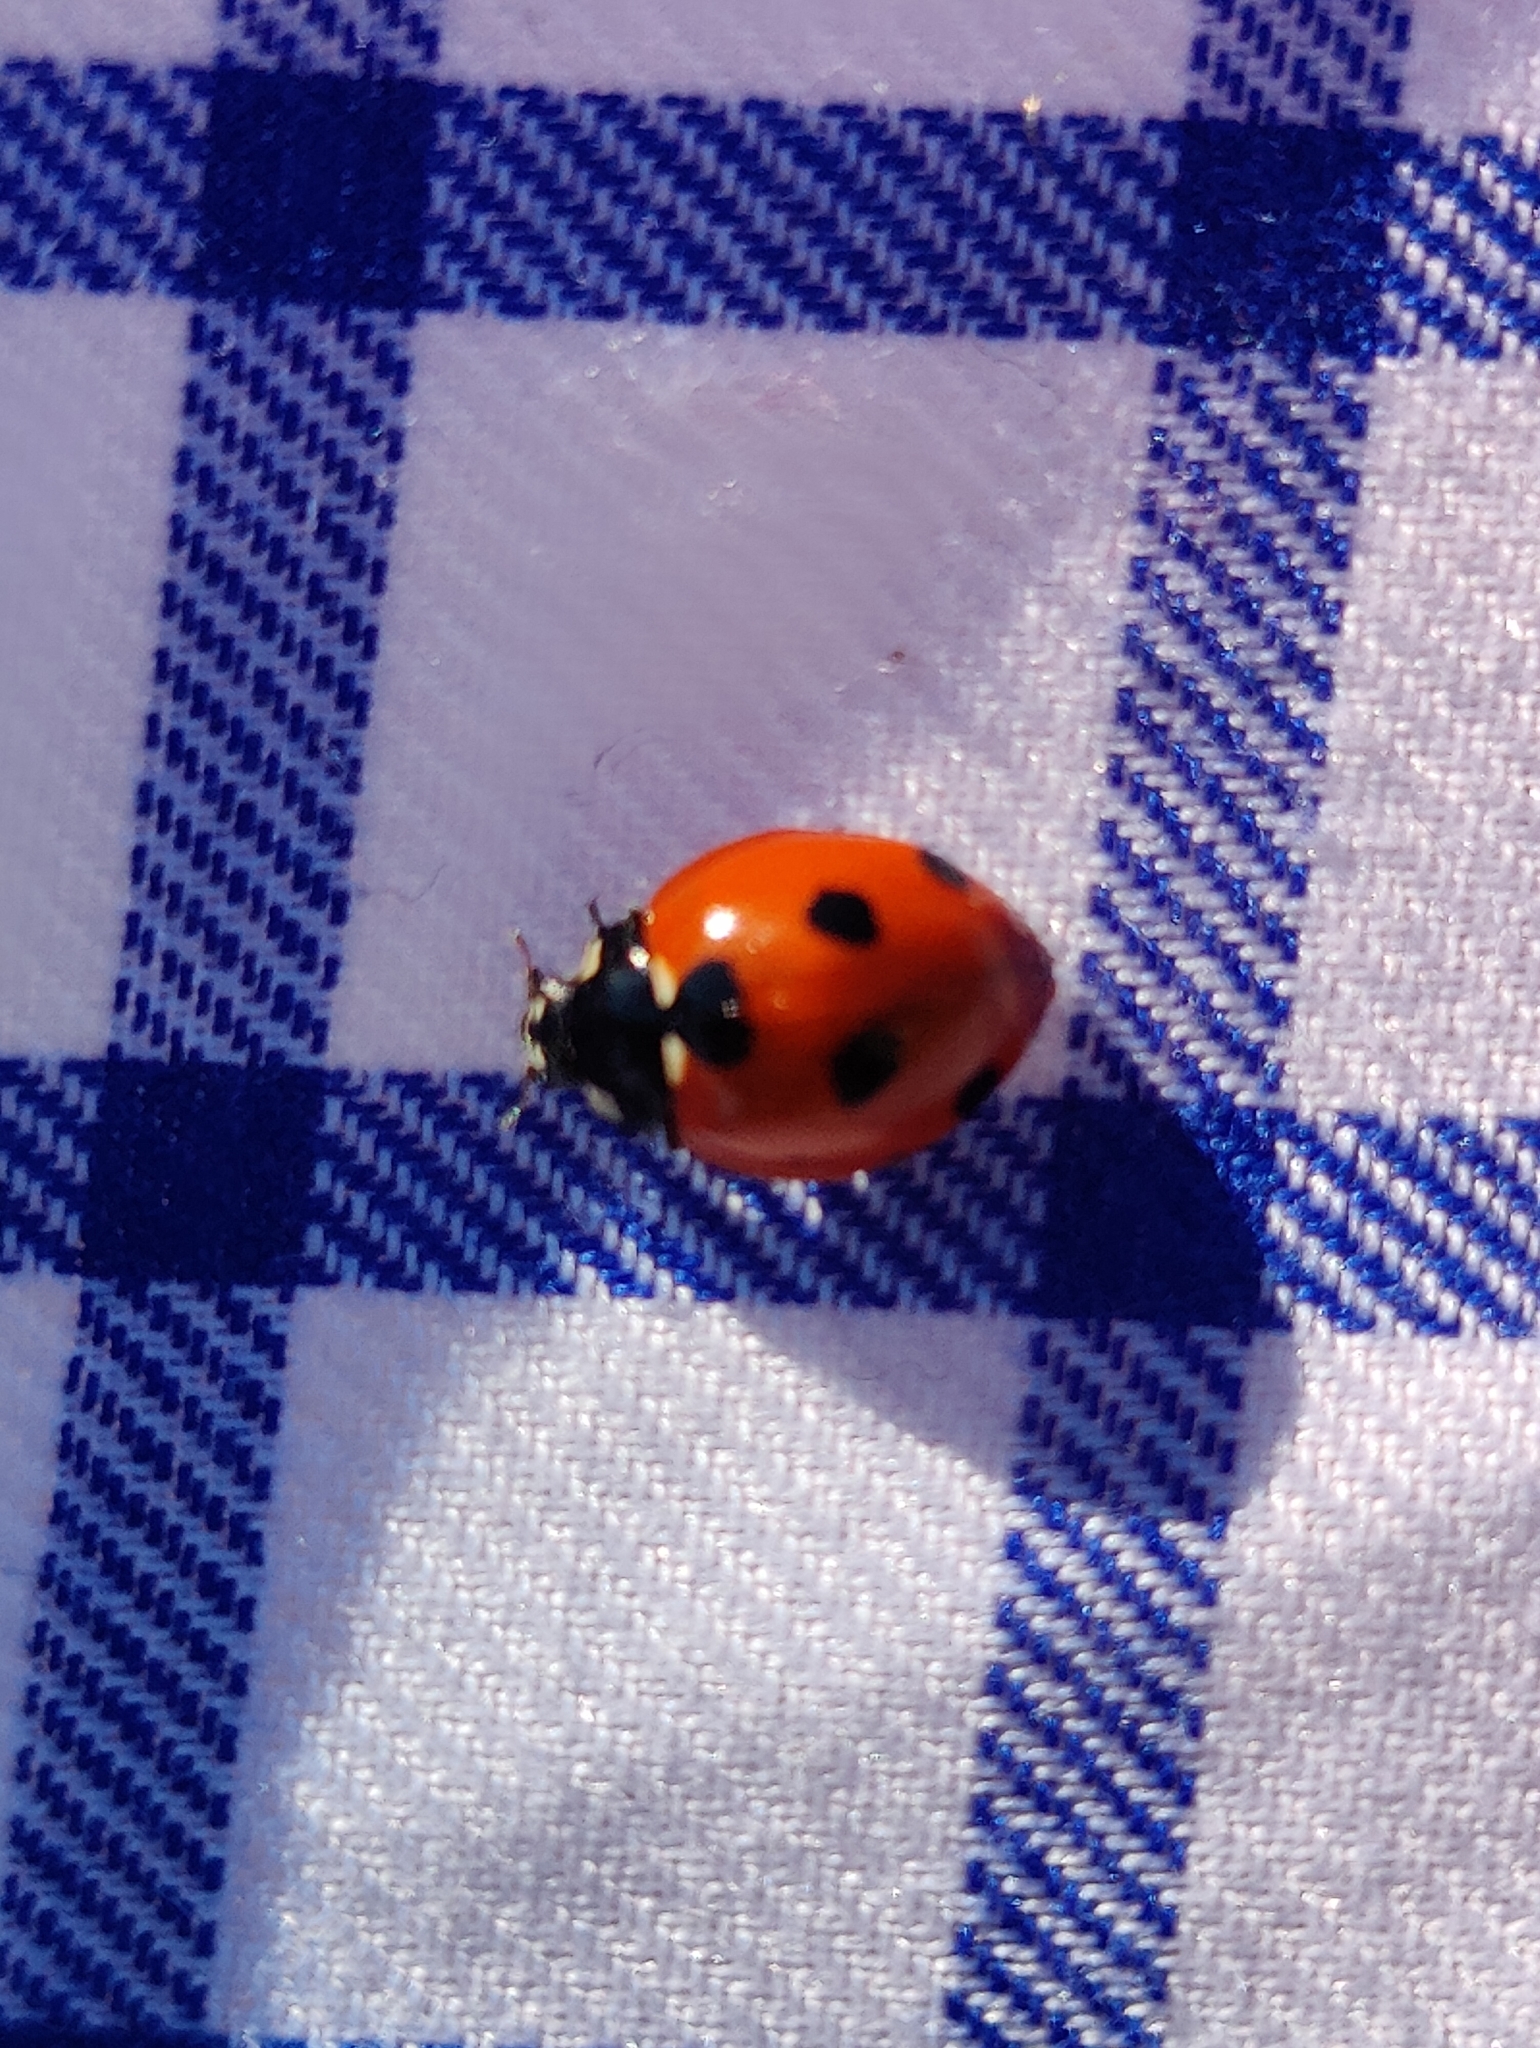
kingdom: Animalia
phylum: Arthropoda
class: Insecta
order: Coleoptera
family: Coccinellidae
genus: Coccinella
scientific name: Coccinella quinquepunctata
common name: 5-spot ladybird
